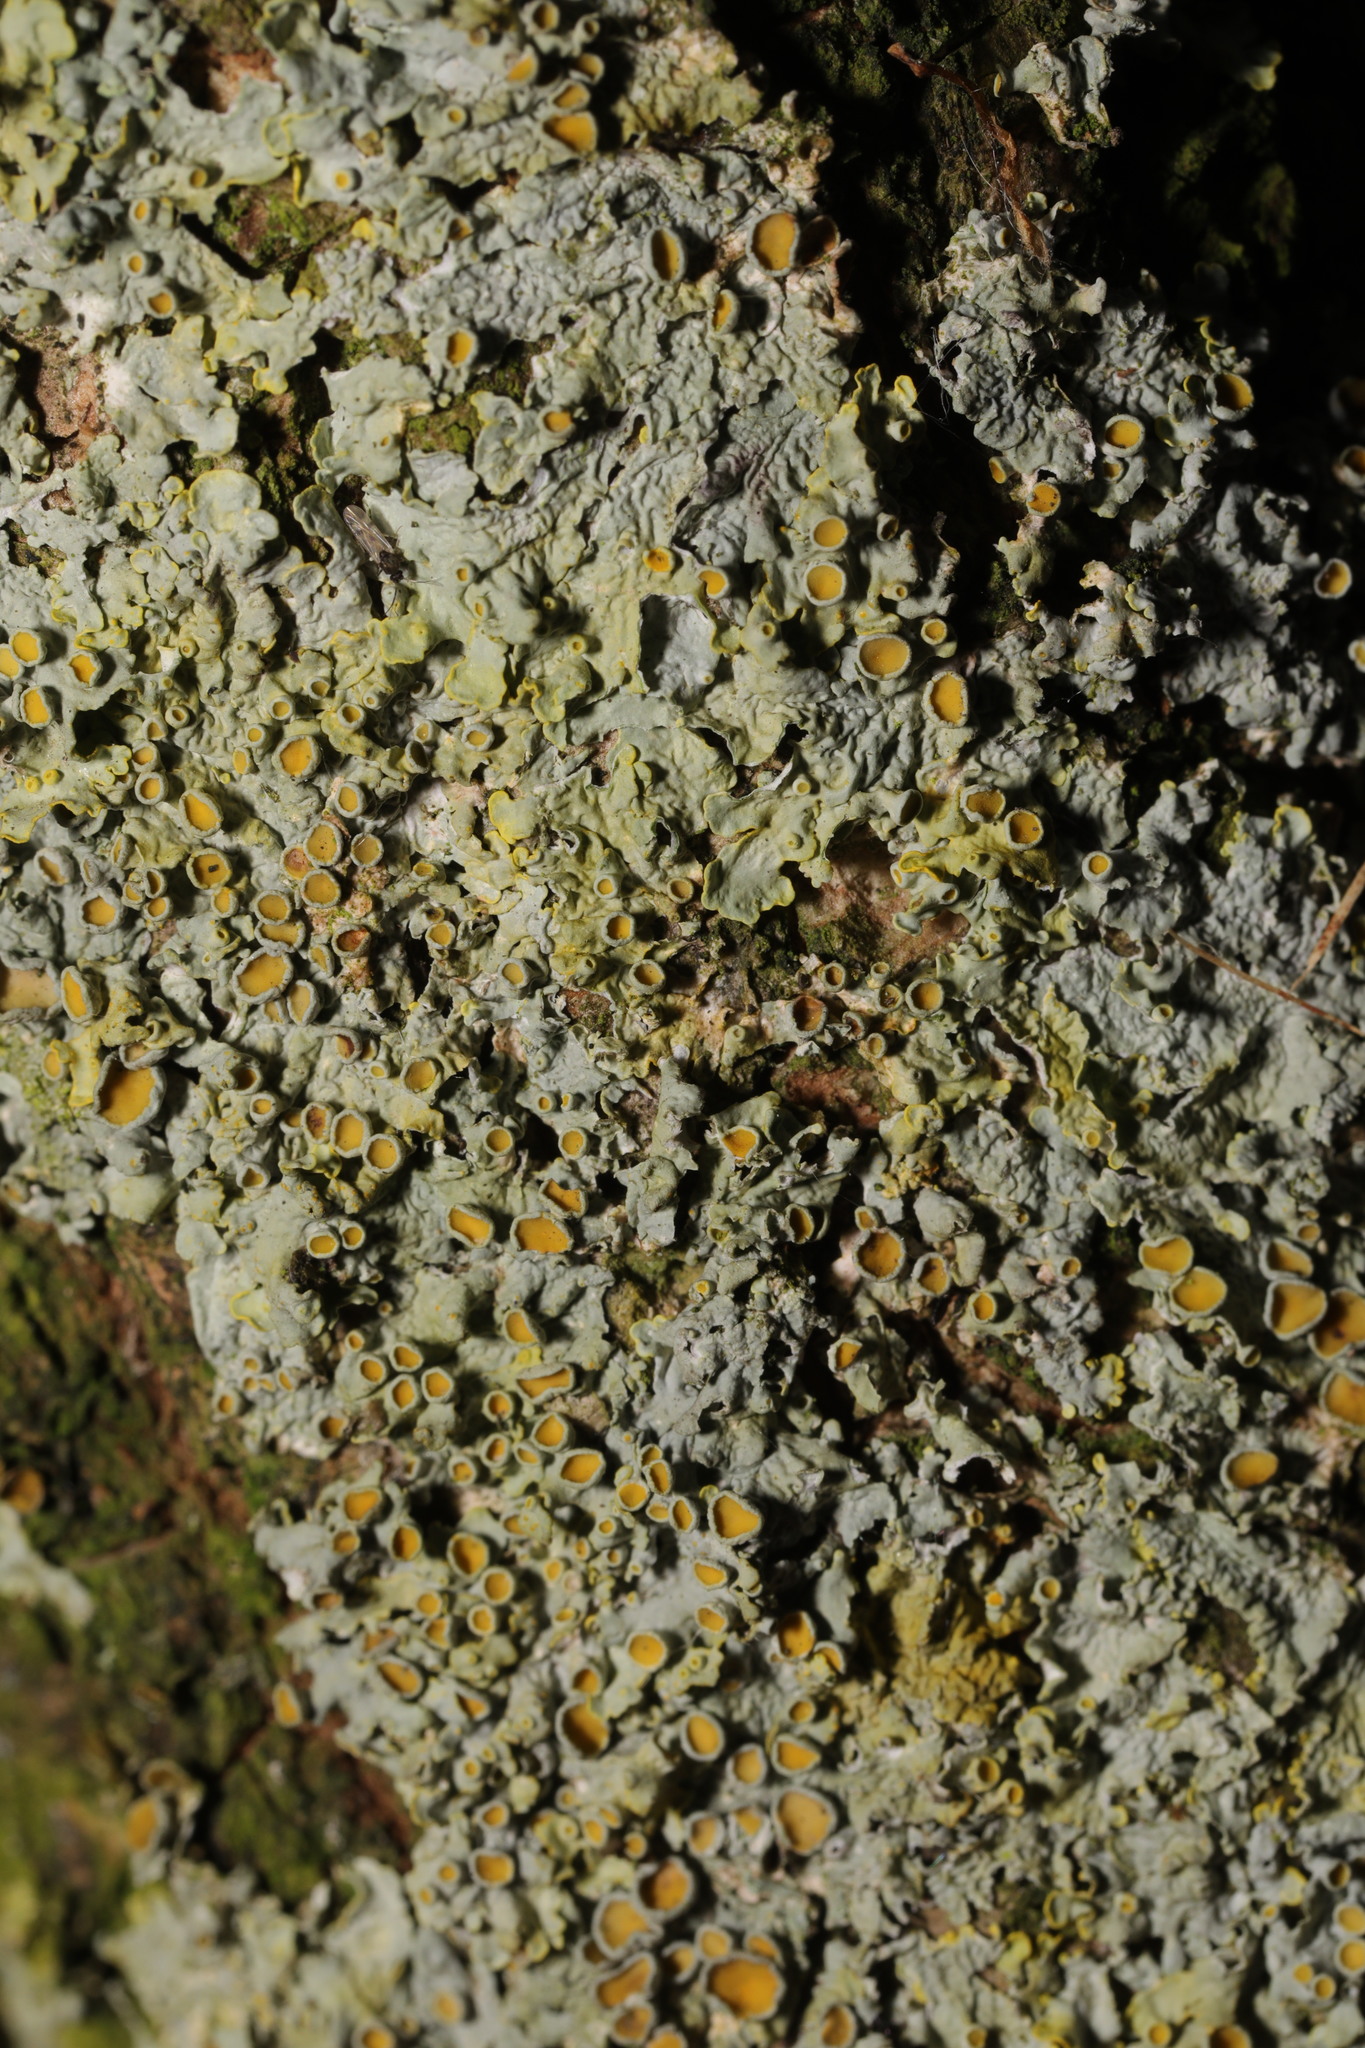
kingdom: Fungi
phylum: Ascomycota
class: Lecanoromycetes
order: Teloschistales
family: Teloschistaceae
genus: Xanthoria
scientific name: Xanthoria parietina
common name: Common orange lichen
